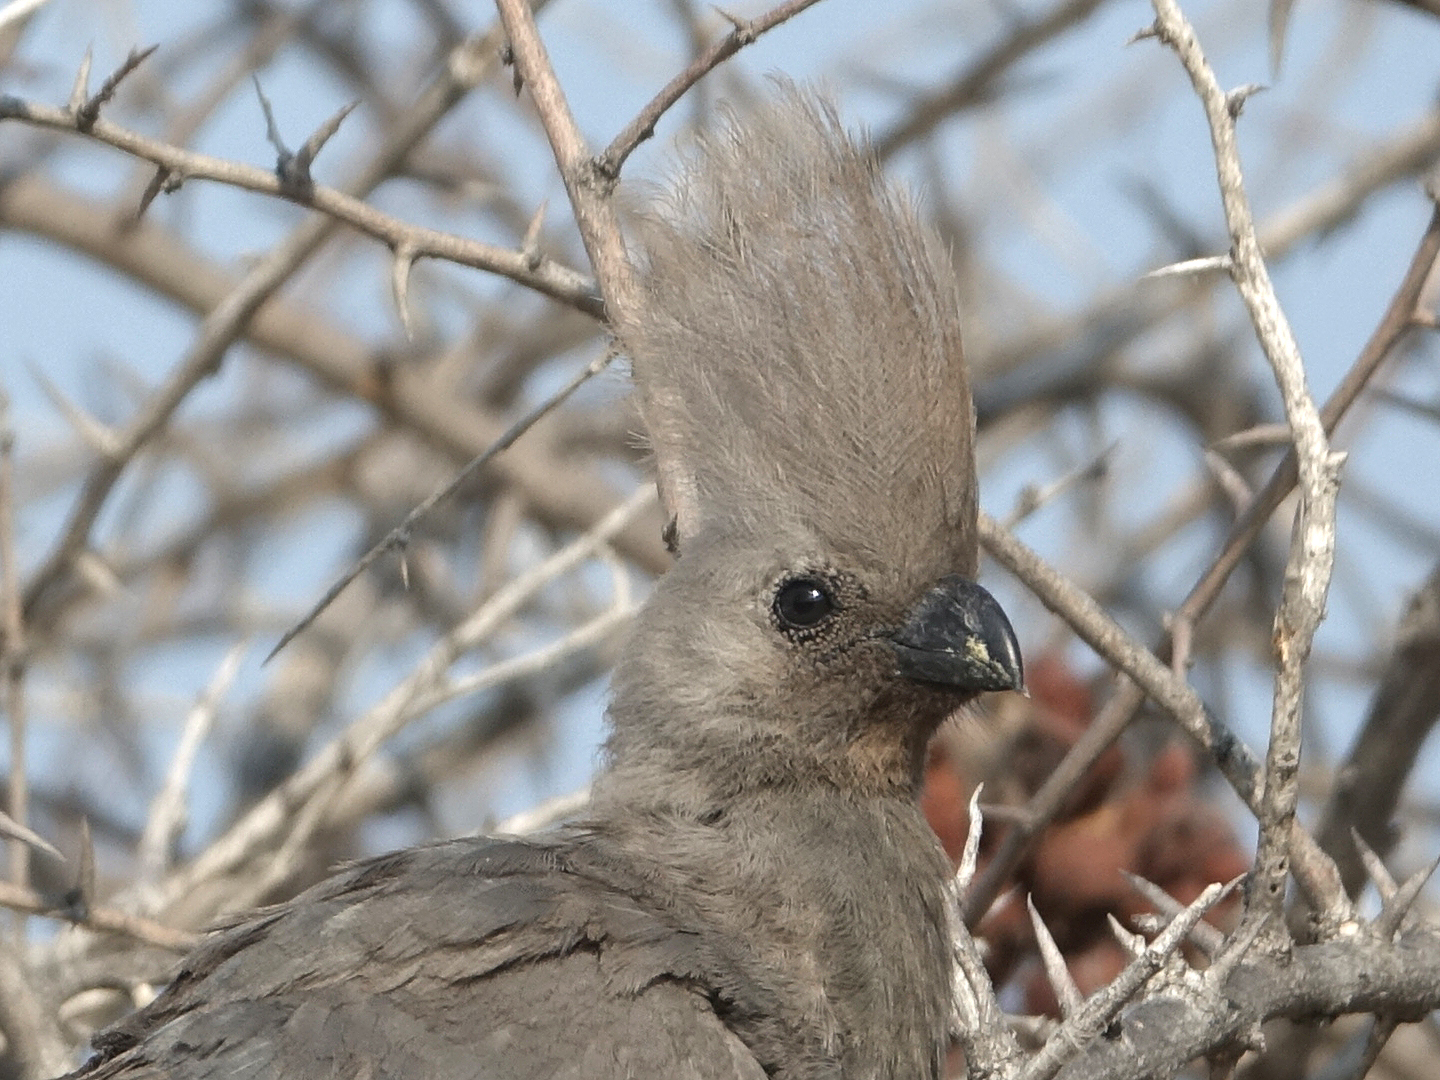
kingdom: Animalia
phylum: Chordata
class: Aves
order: Musophagiformes
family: Musophagidae
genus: Corythaixoides
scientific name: Corythaixoides concolor
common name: Grey go-away-bird
